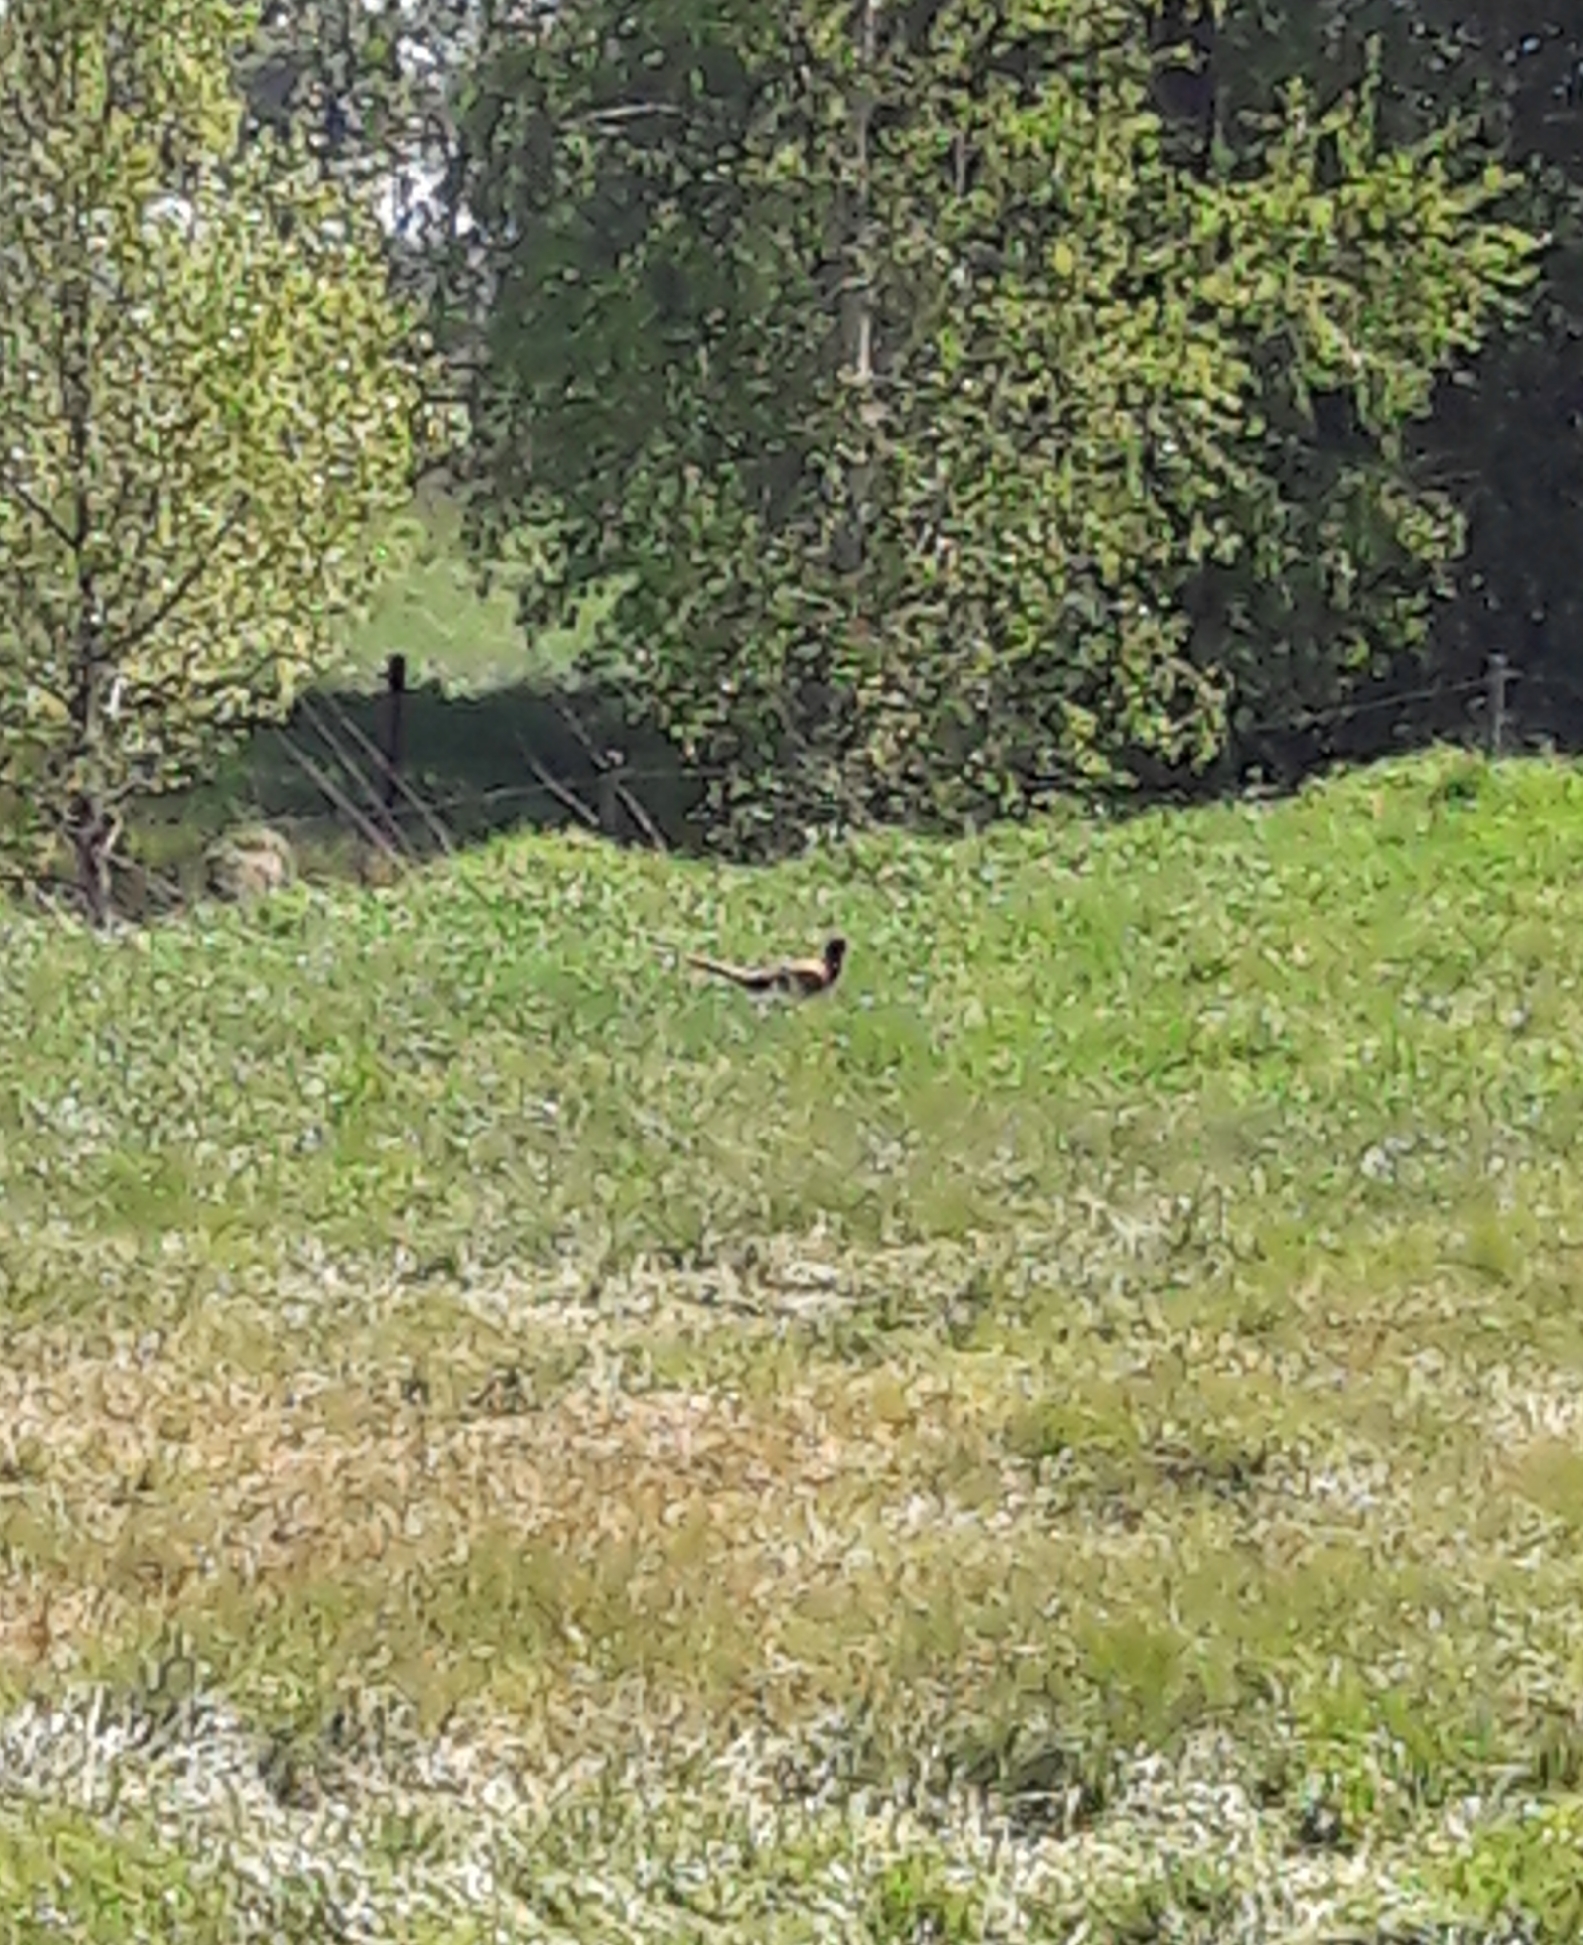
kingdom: Animalia
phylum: Chordata
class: Aves
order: Galliformes
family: Phasianidae
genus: Phasianus
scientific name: Phasianus colchicus
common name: Common pheasant
